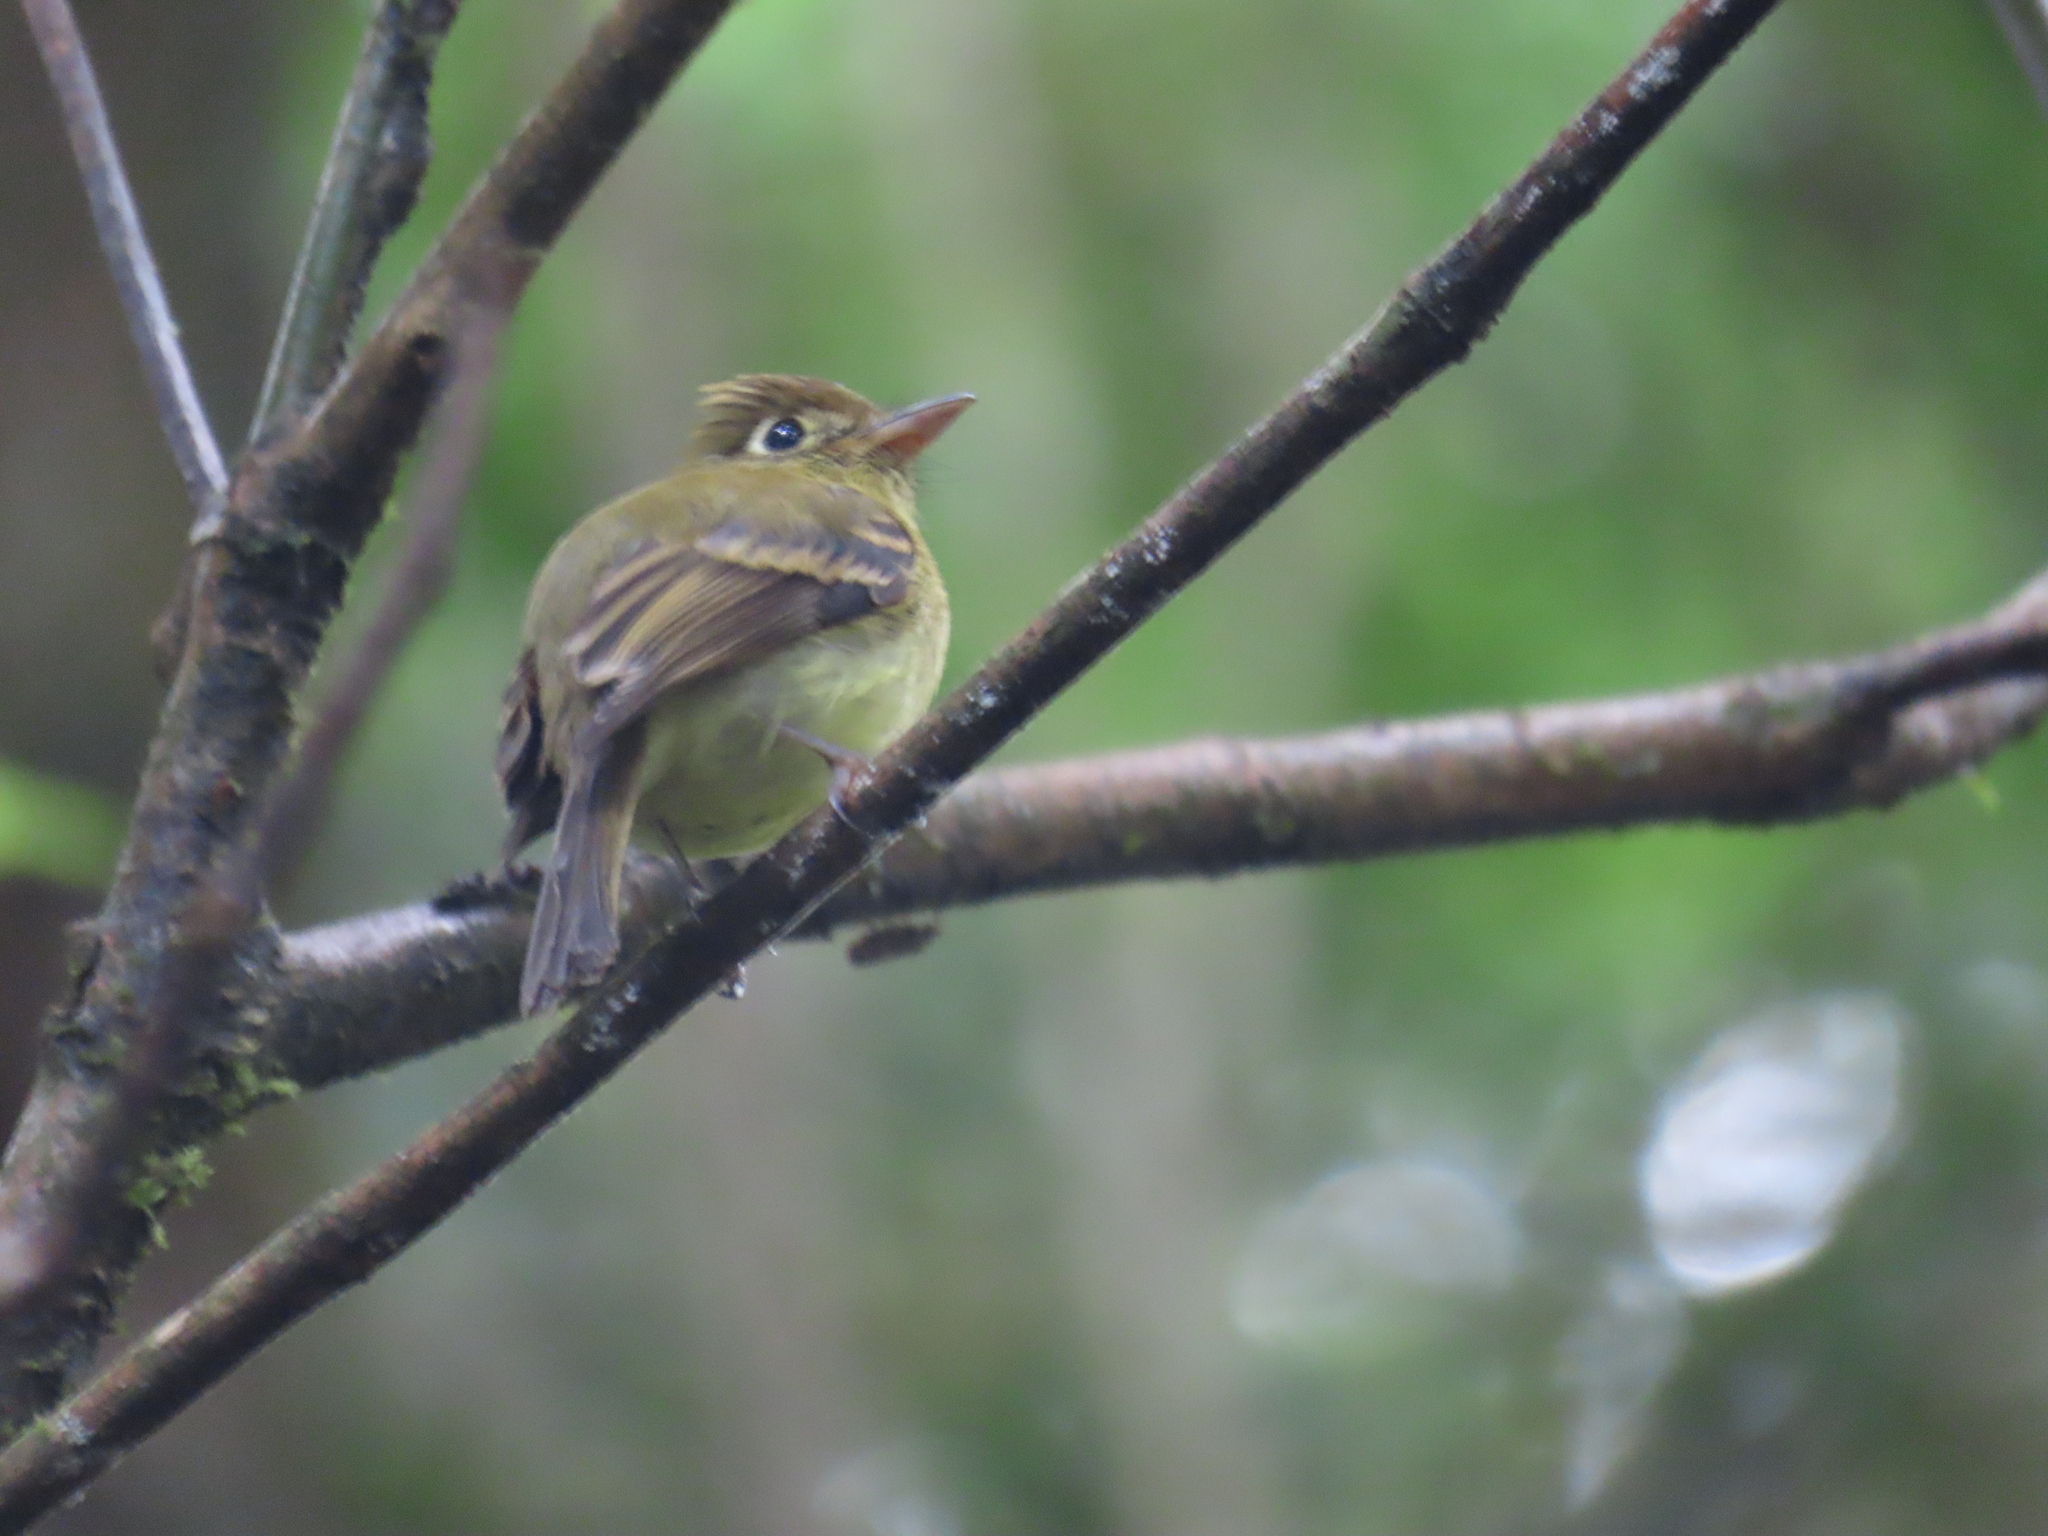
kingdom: Animalia
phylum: Chordata
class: Aves
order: Passeriformes
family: Tyrannidae
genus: Empidonax
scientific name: Empidonax flavescens
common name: Yellowish flycatcher
